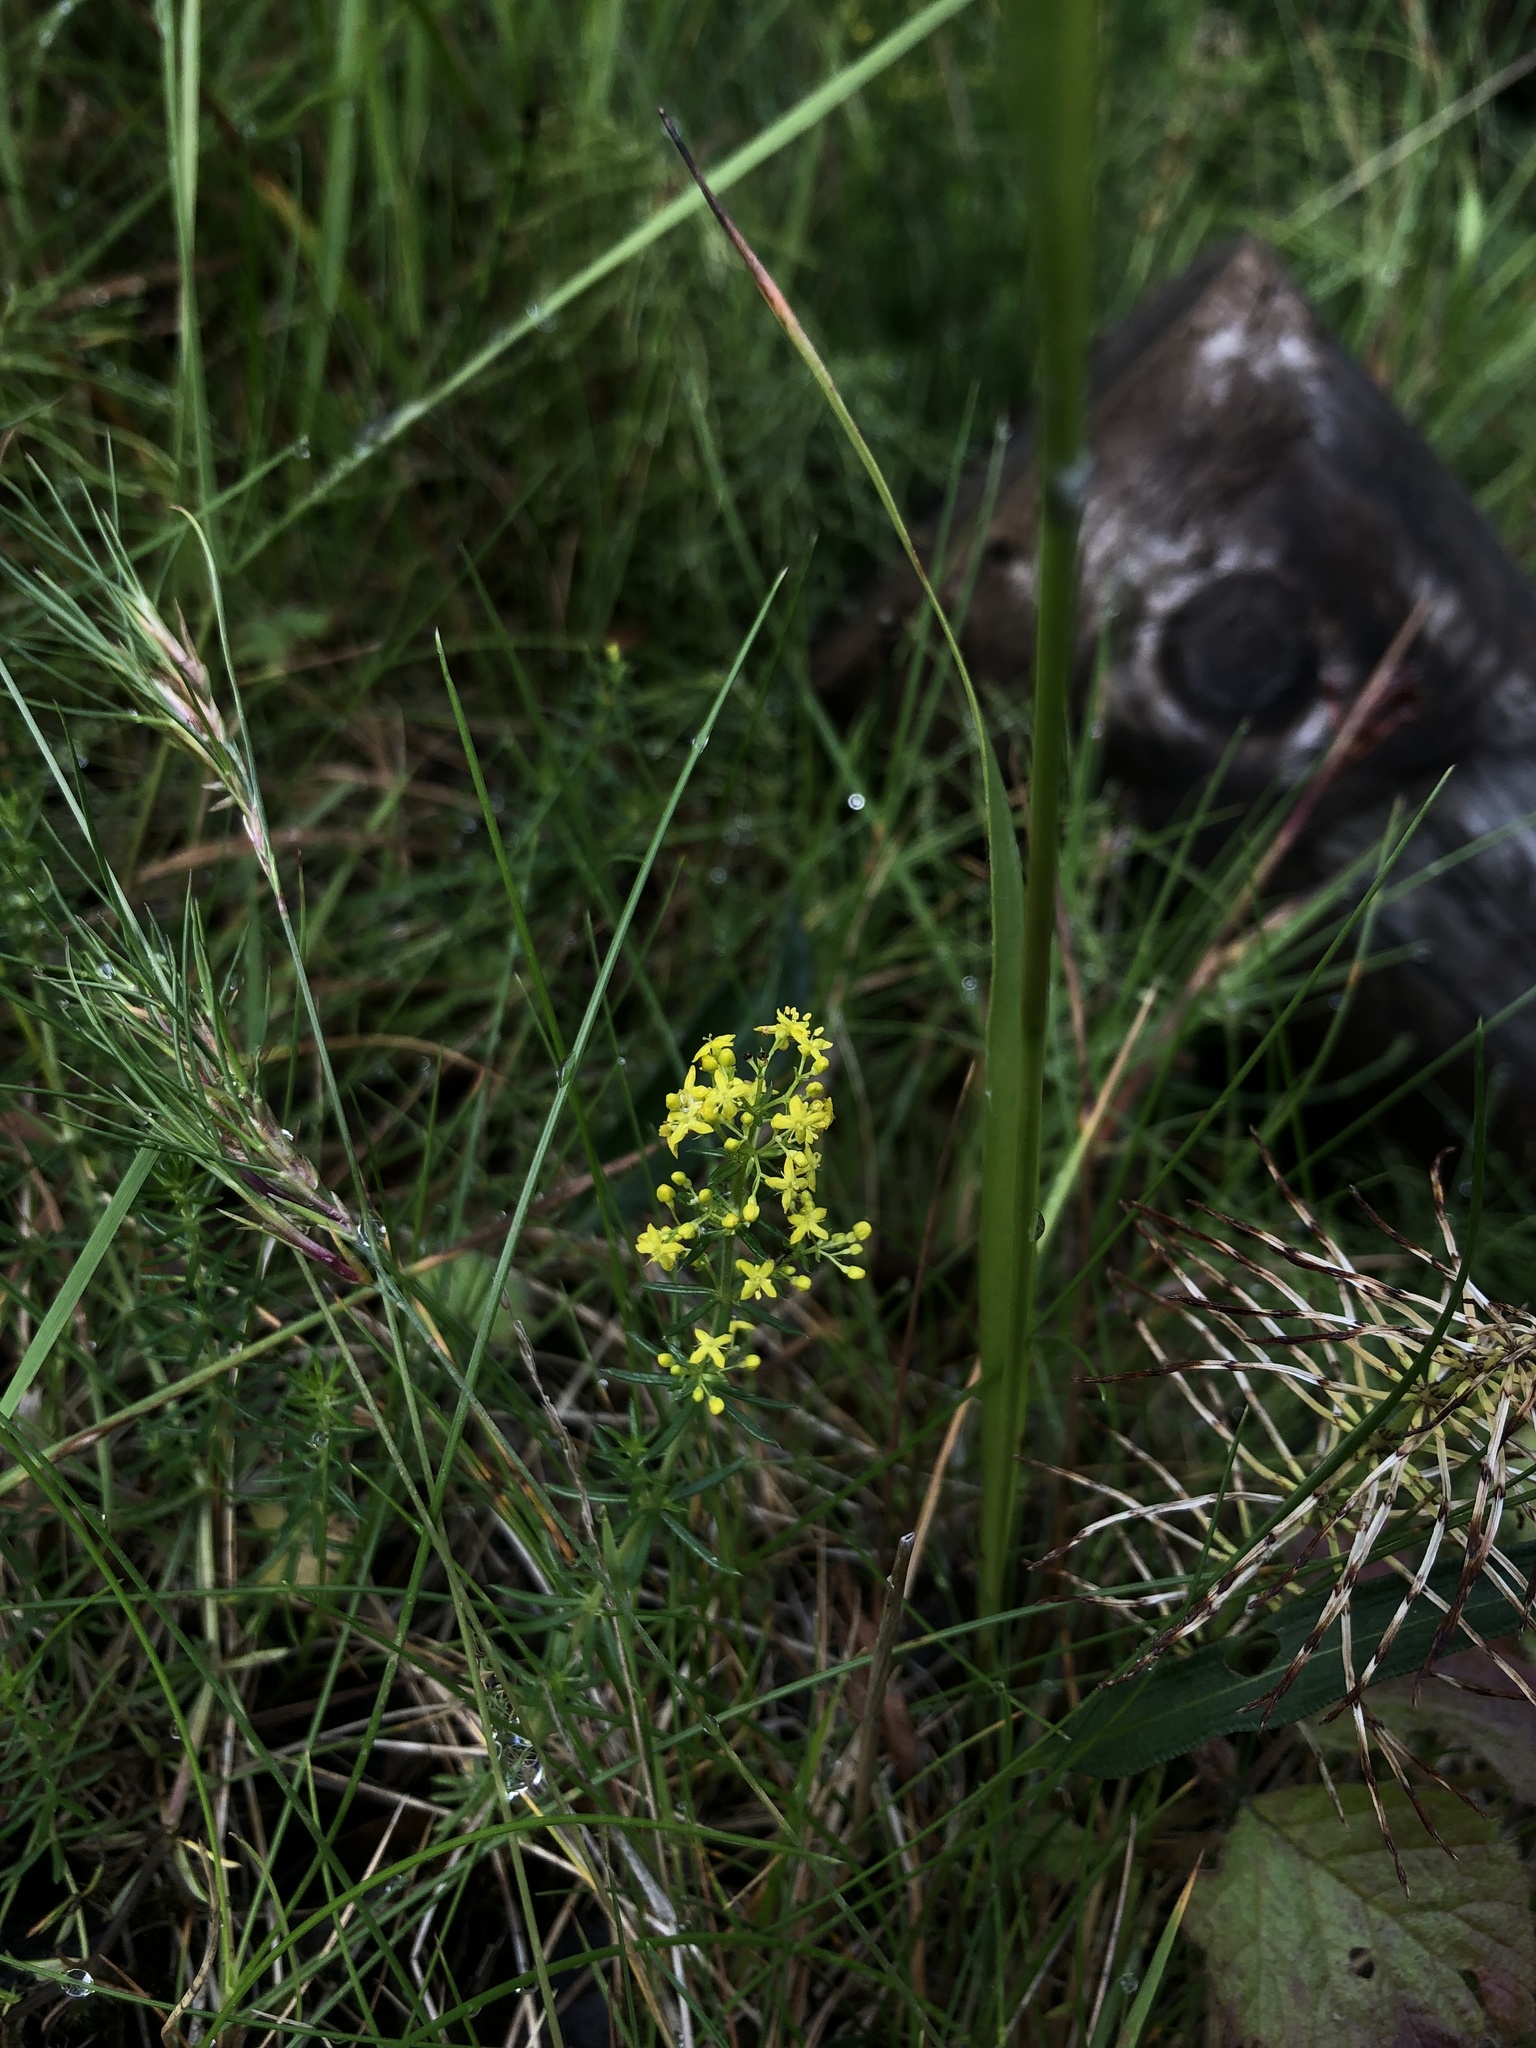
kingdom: Plantae
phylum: Tracheophyta
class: Magnoliopsida
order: Gentianales
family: Rubiaceae
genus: Galium
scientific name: Galium verum
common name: Lady's bedstraw
